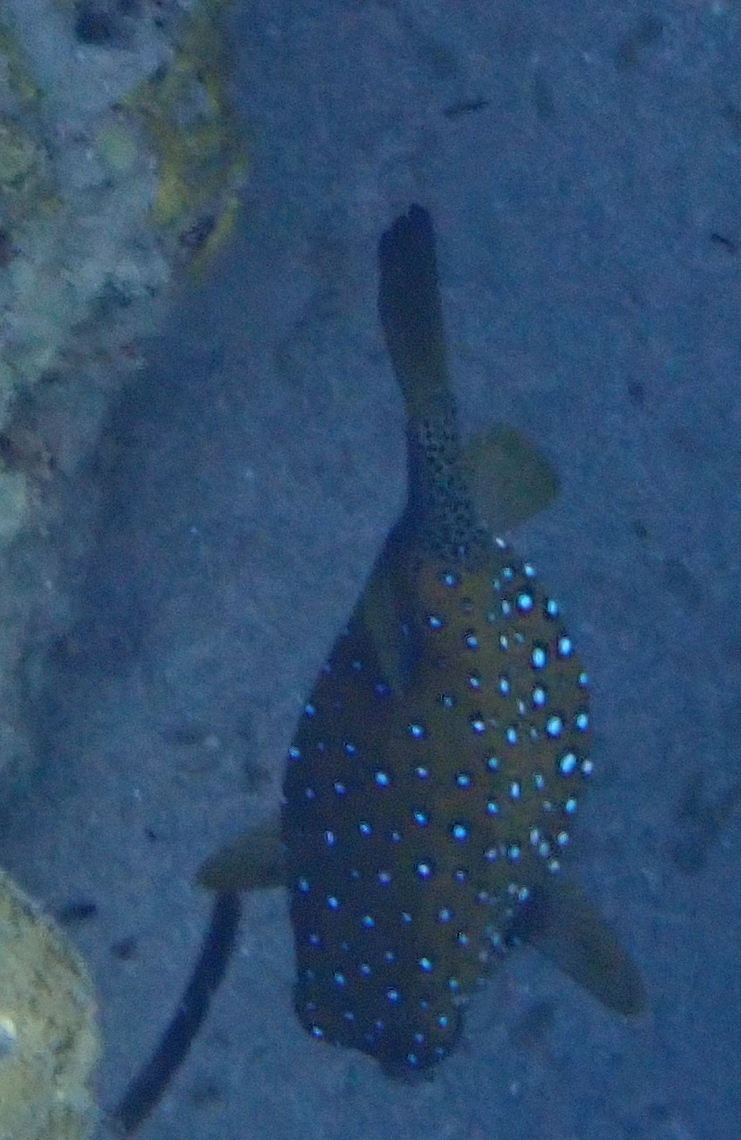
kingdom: Animalia
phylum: Chordata
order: Tetraodontiformes
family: Ostraciidae
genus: Ostracion
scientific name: Ostracion cubicus
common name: Cube trunkfish
